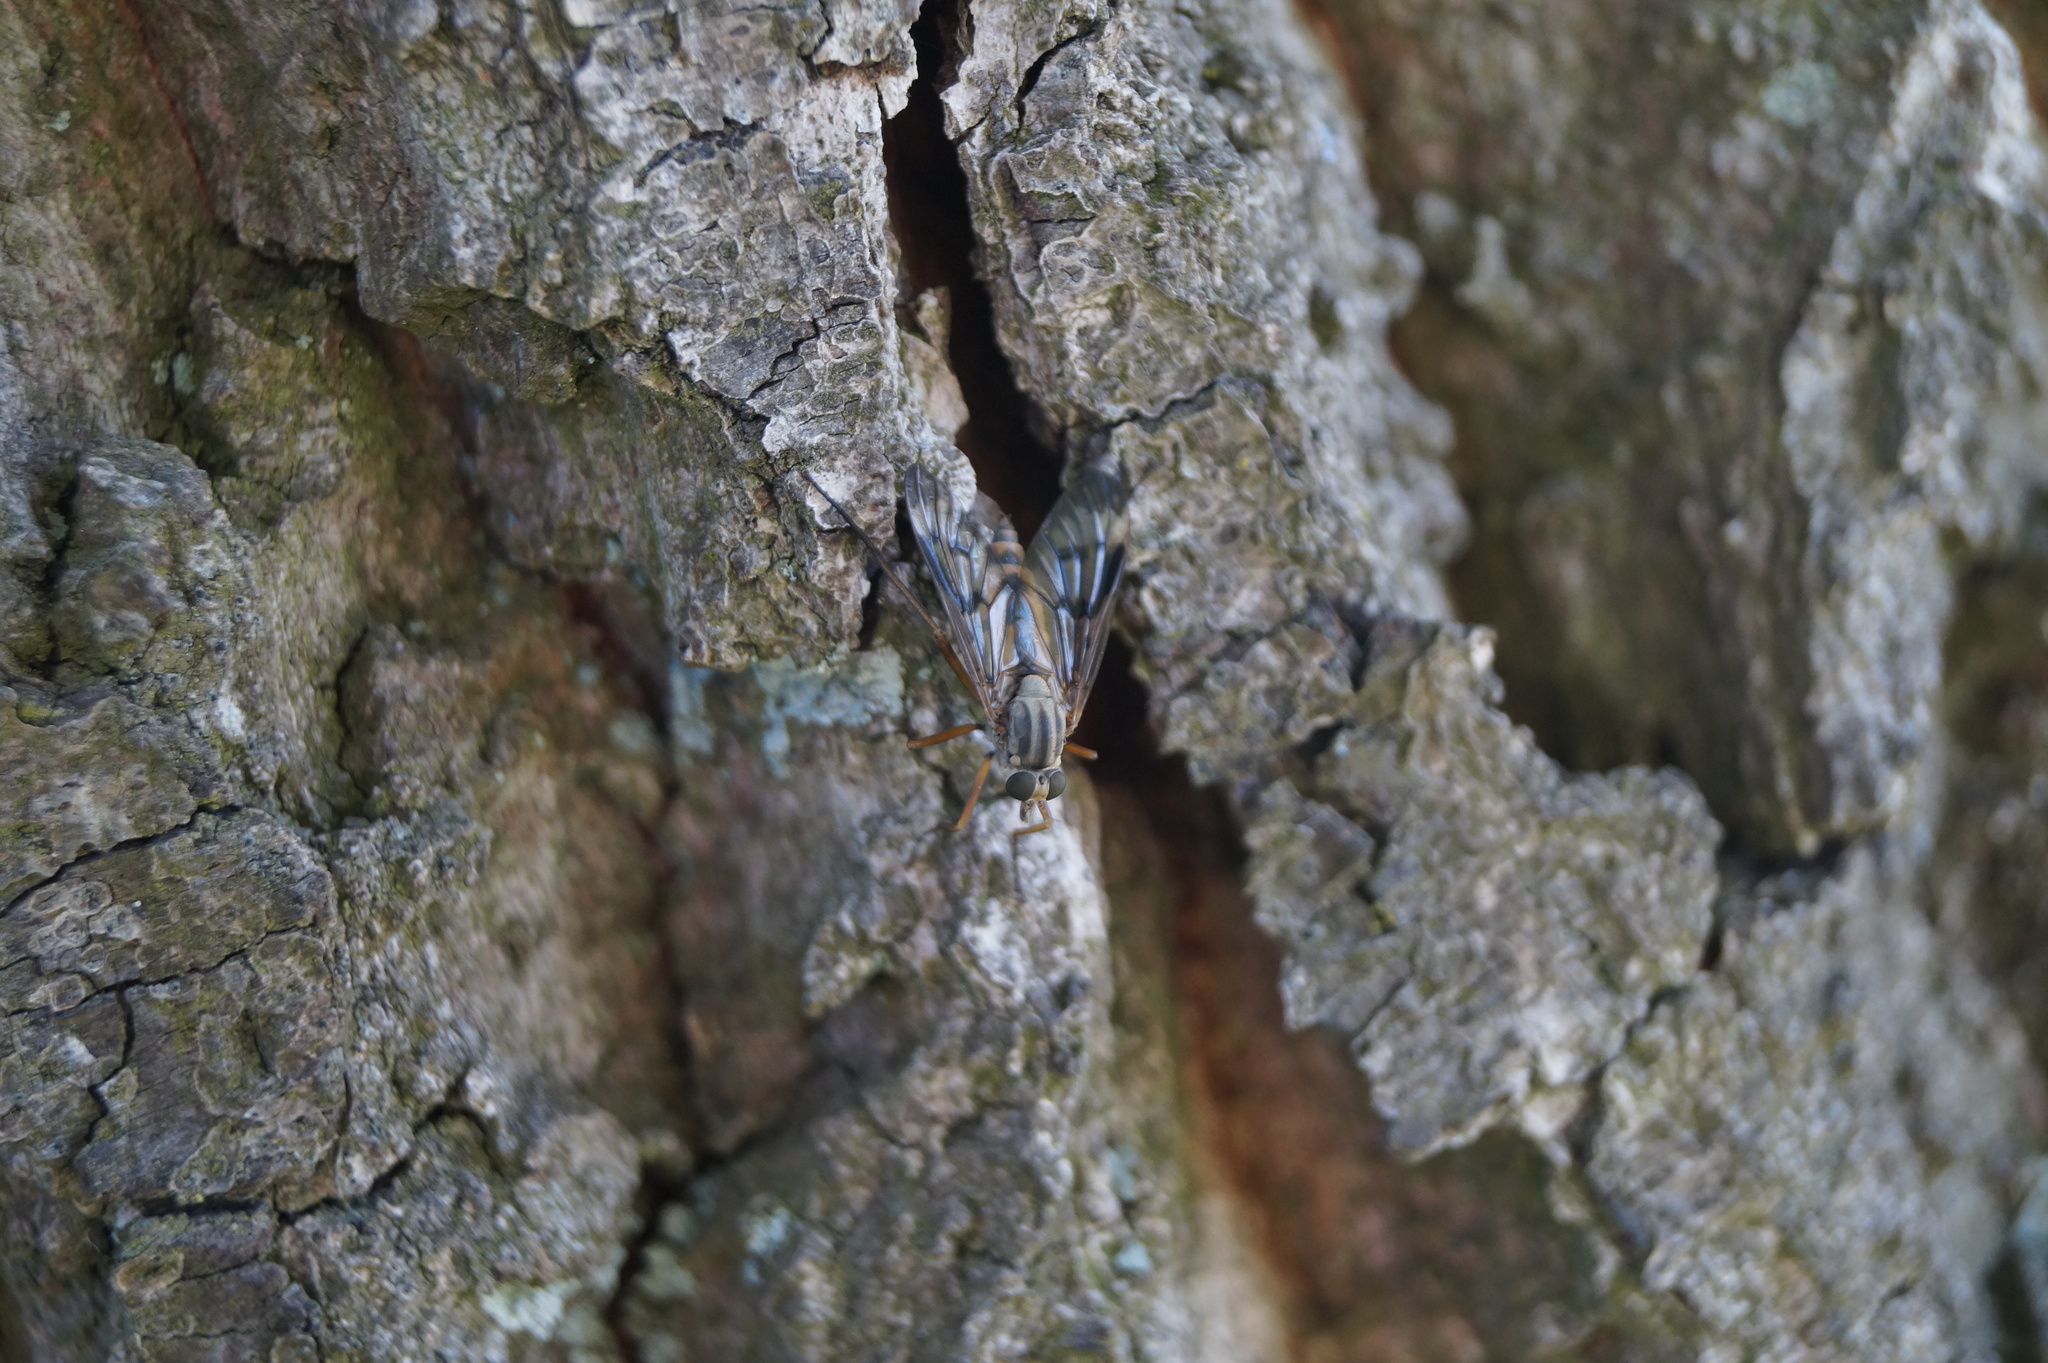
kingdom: Animalia
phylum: Arthropoda
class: Insecta
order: Diptera
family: Rhagionidae
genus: Rhagio
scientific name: Rhagio scolopacea
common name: Downlooker snipefly
